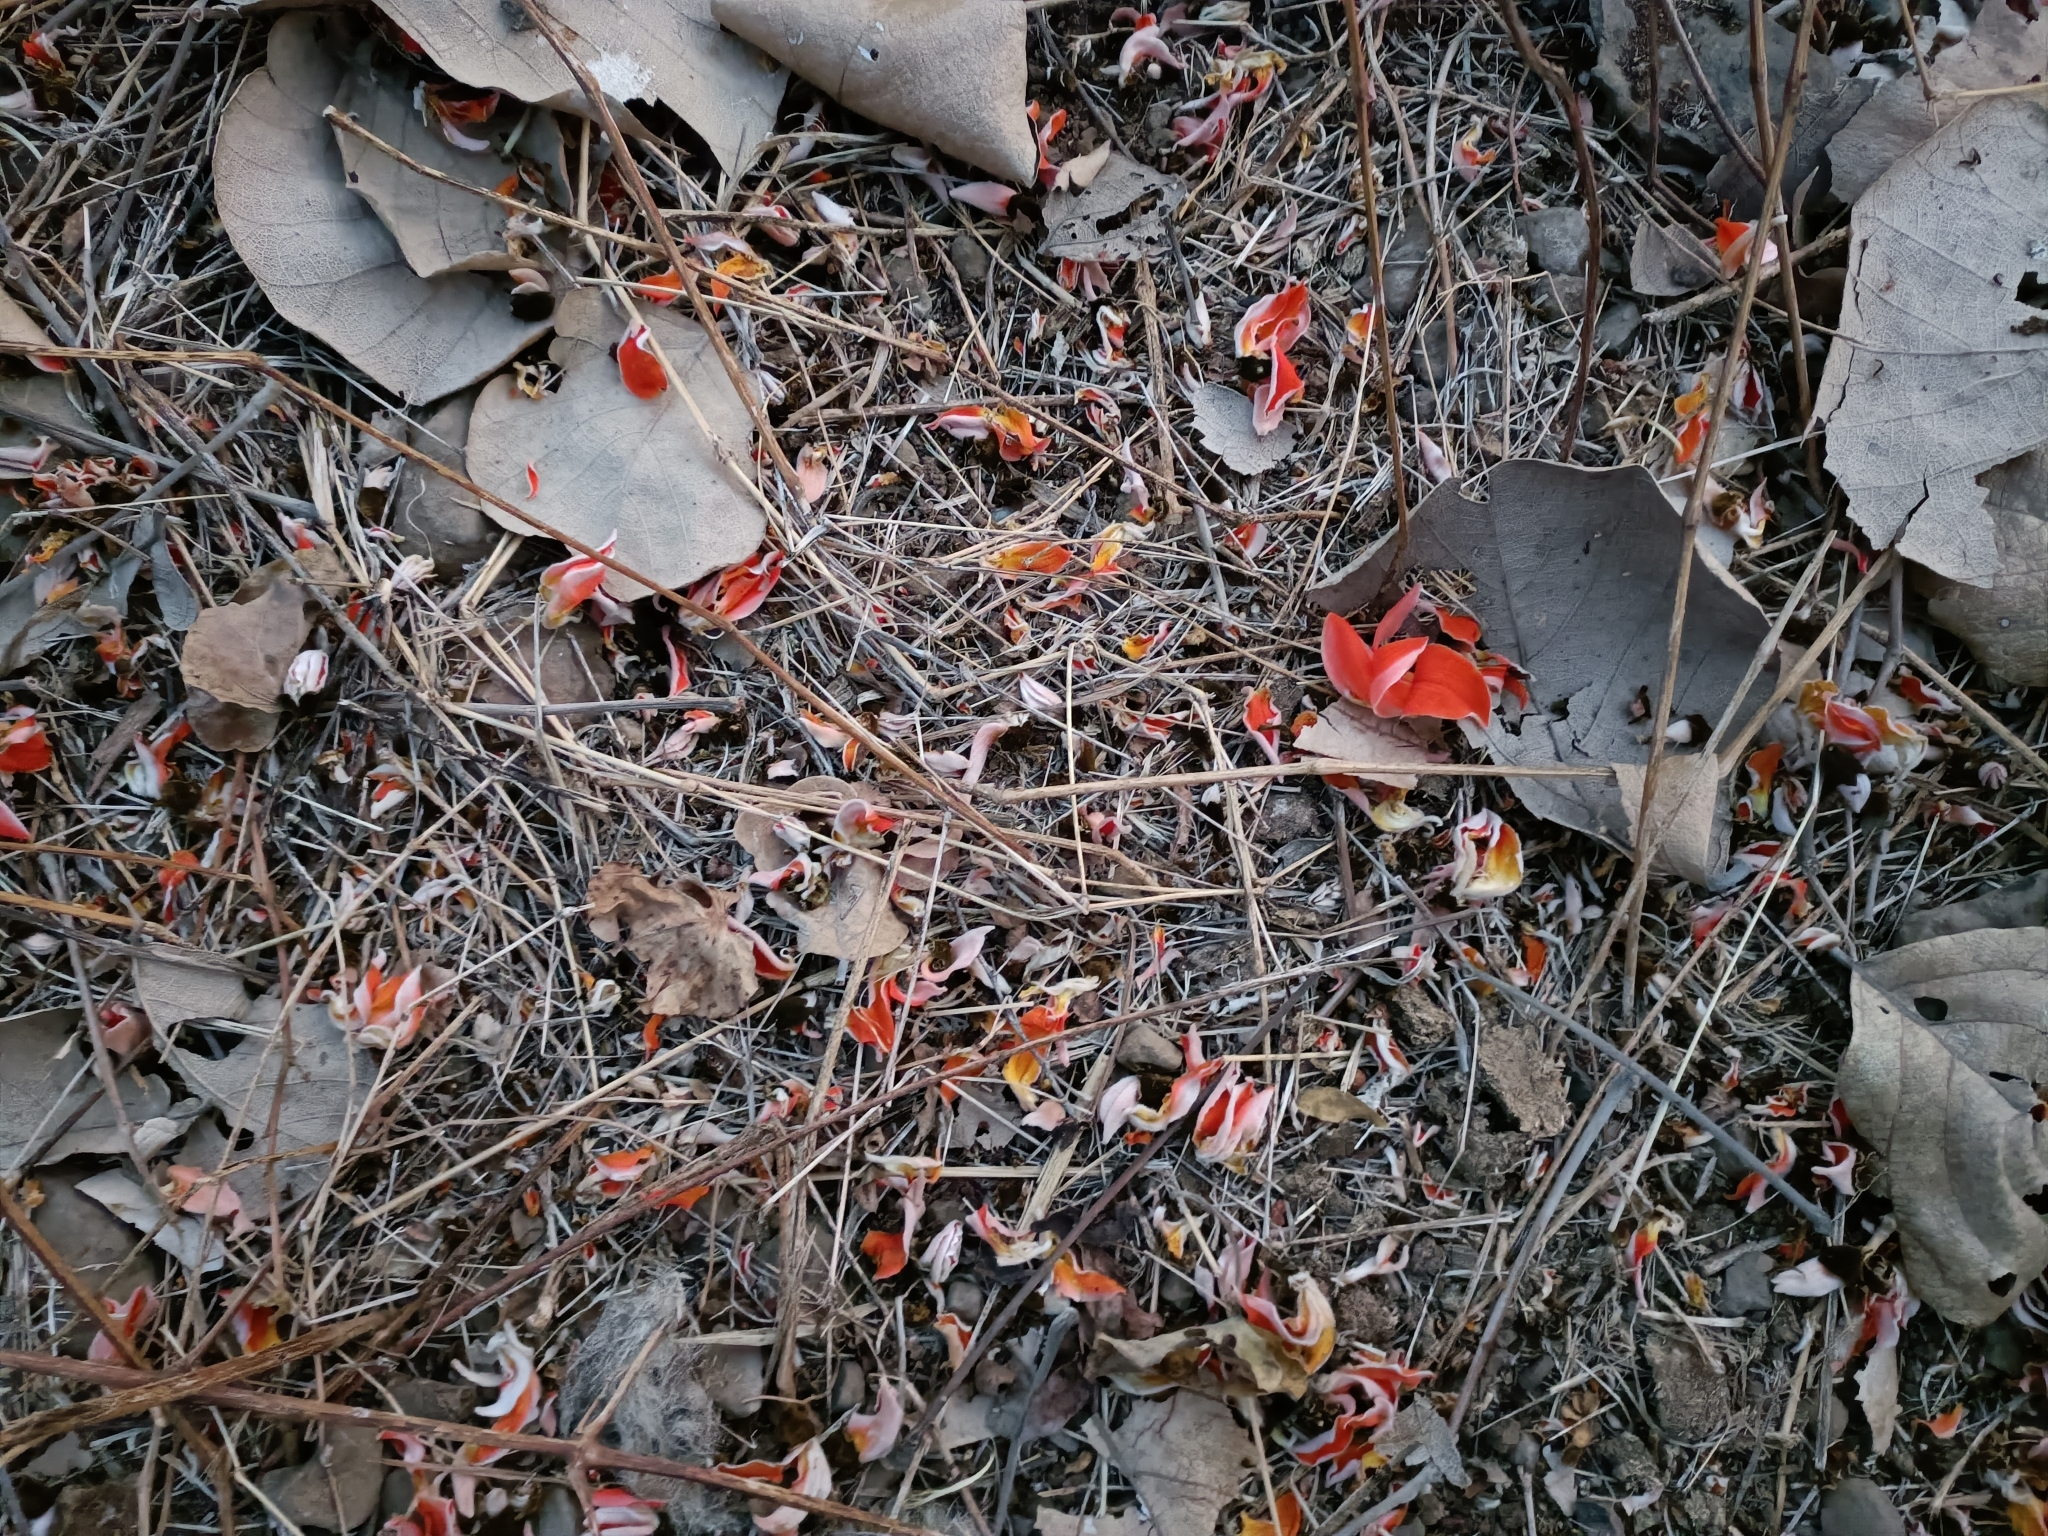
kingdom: Plantae
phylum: Tracheophyta
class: Magnoliopsida
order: Fabales
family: Fabaceae
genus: Butea
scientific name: Butea monosperma
